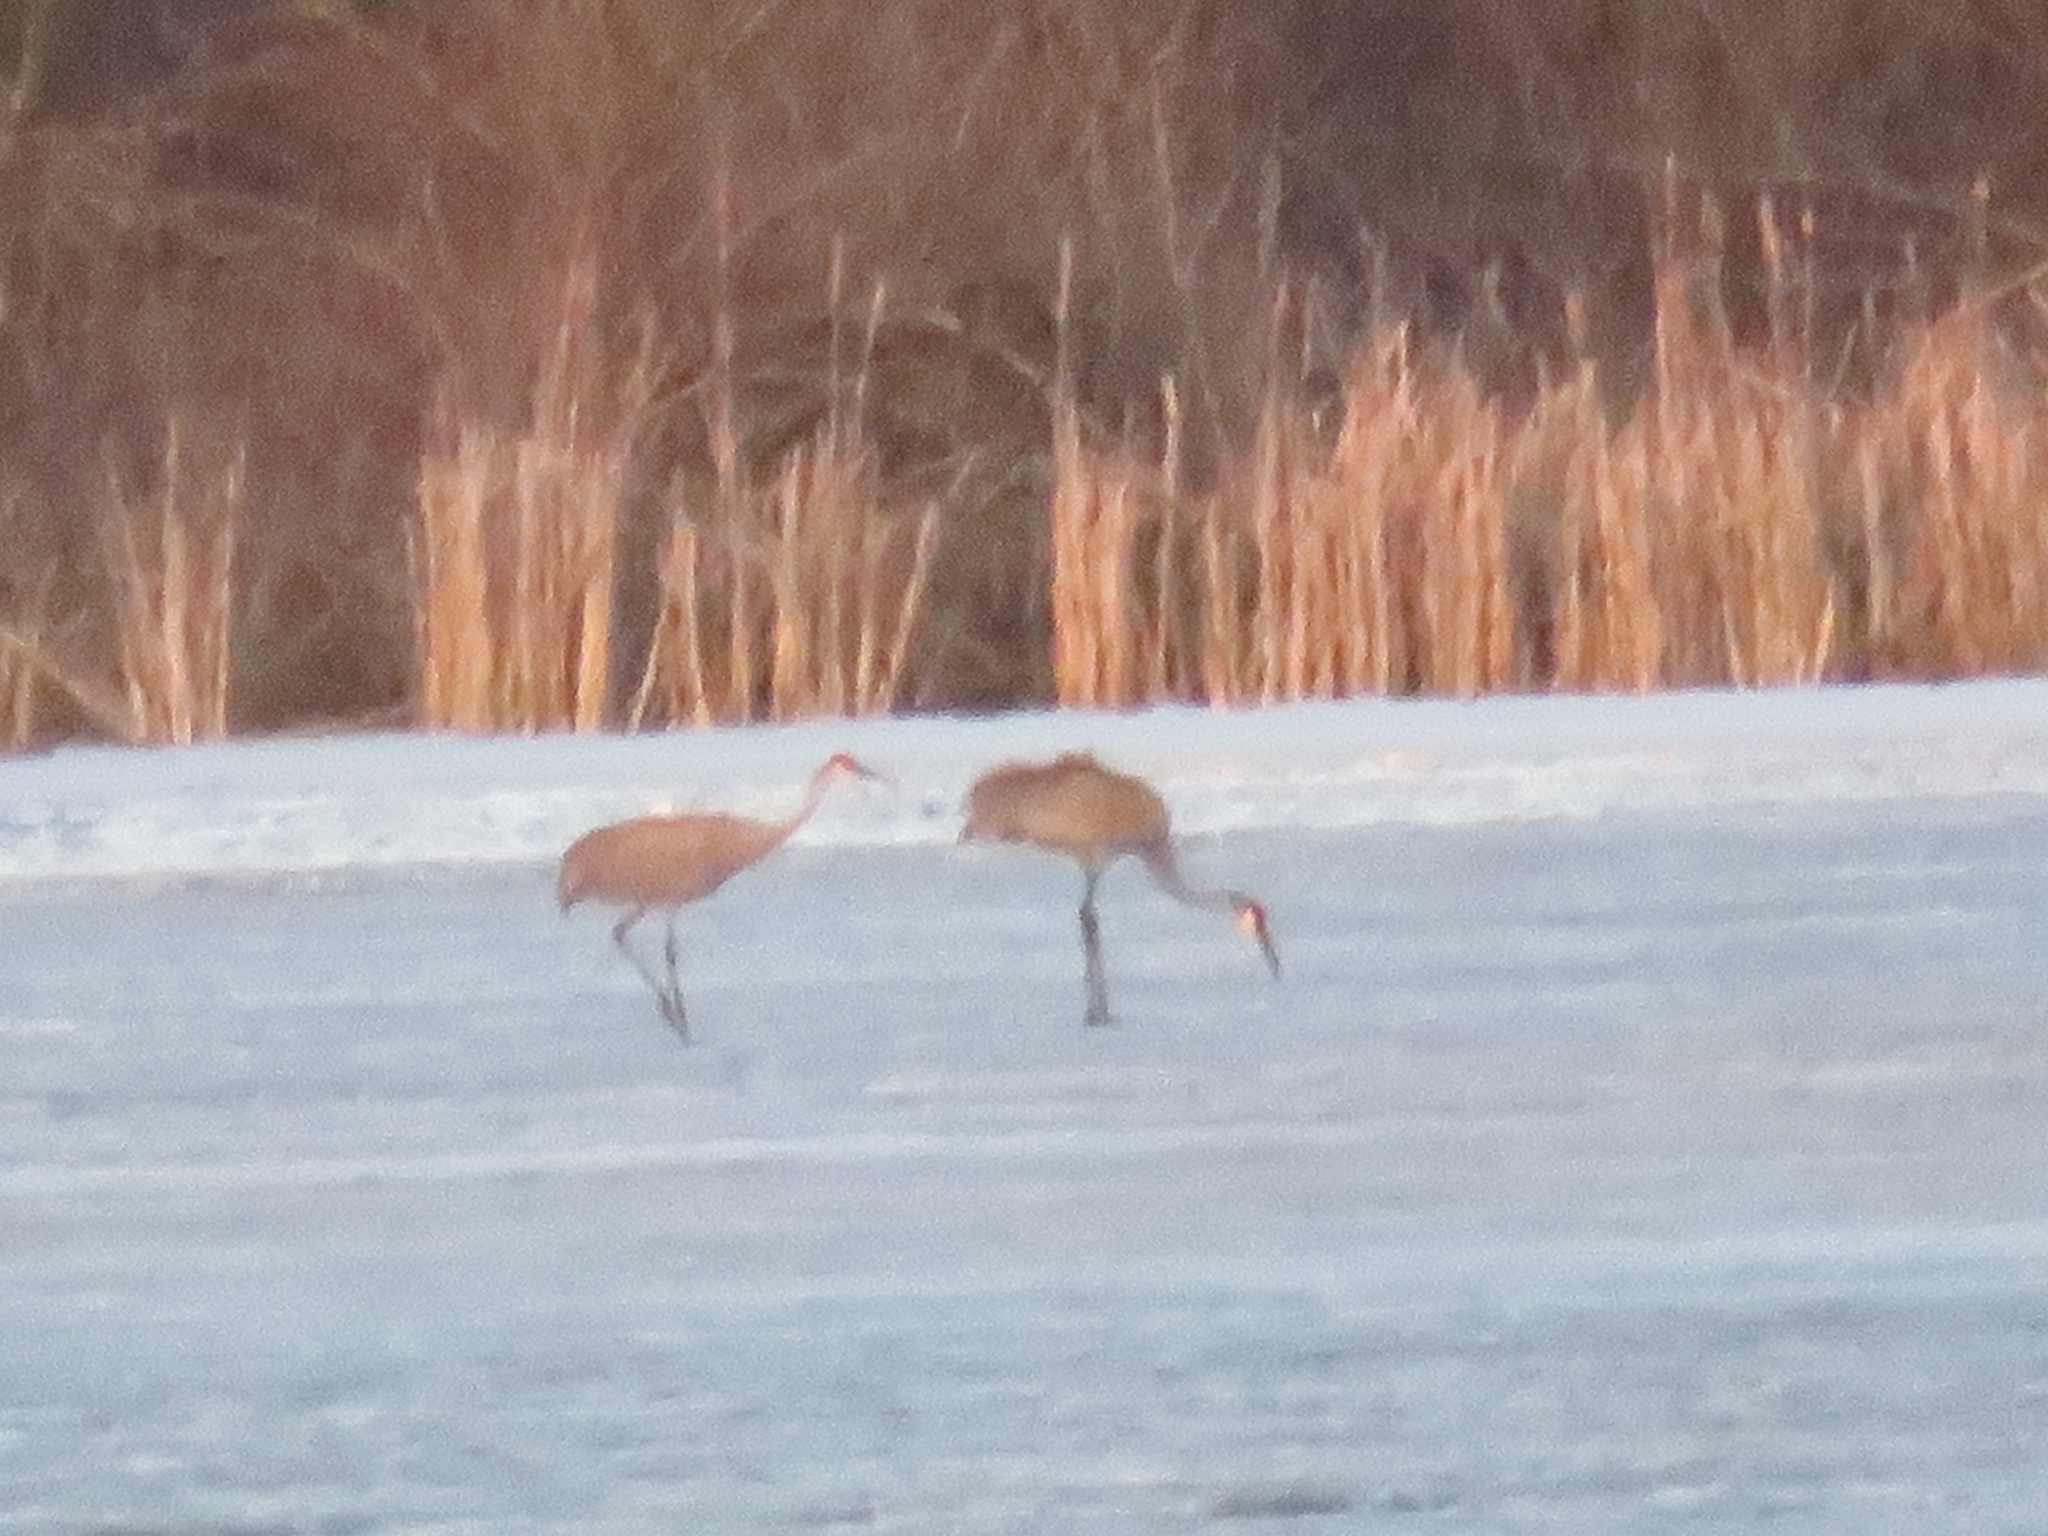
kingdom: Animalia
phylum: Chordata
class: Aves
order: Gruiformes
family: Gruidae
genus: Grus
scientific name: Grus canadensis
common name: Sandhill crane
